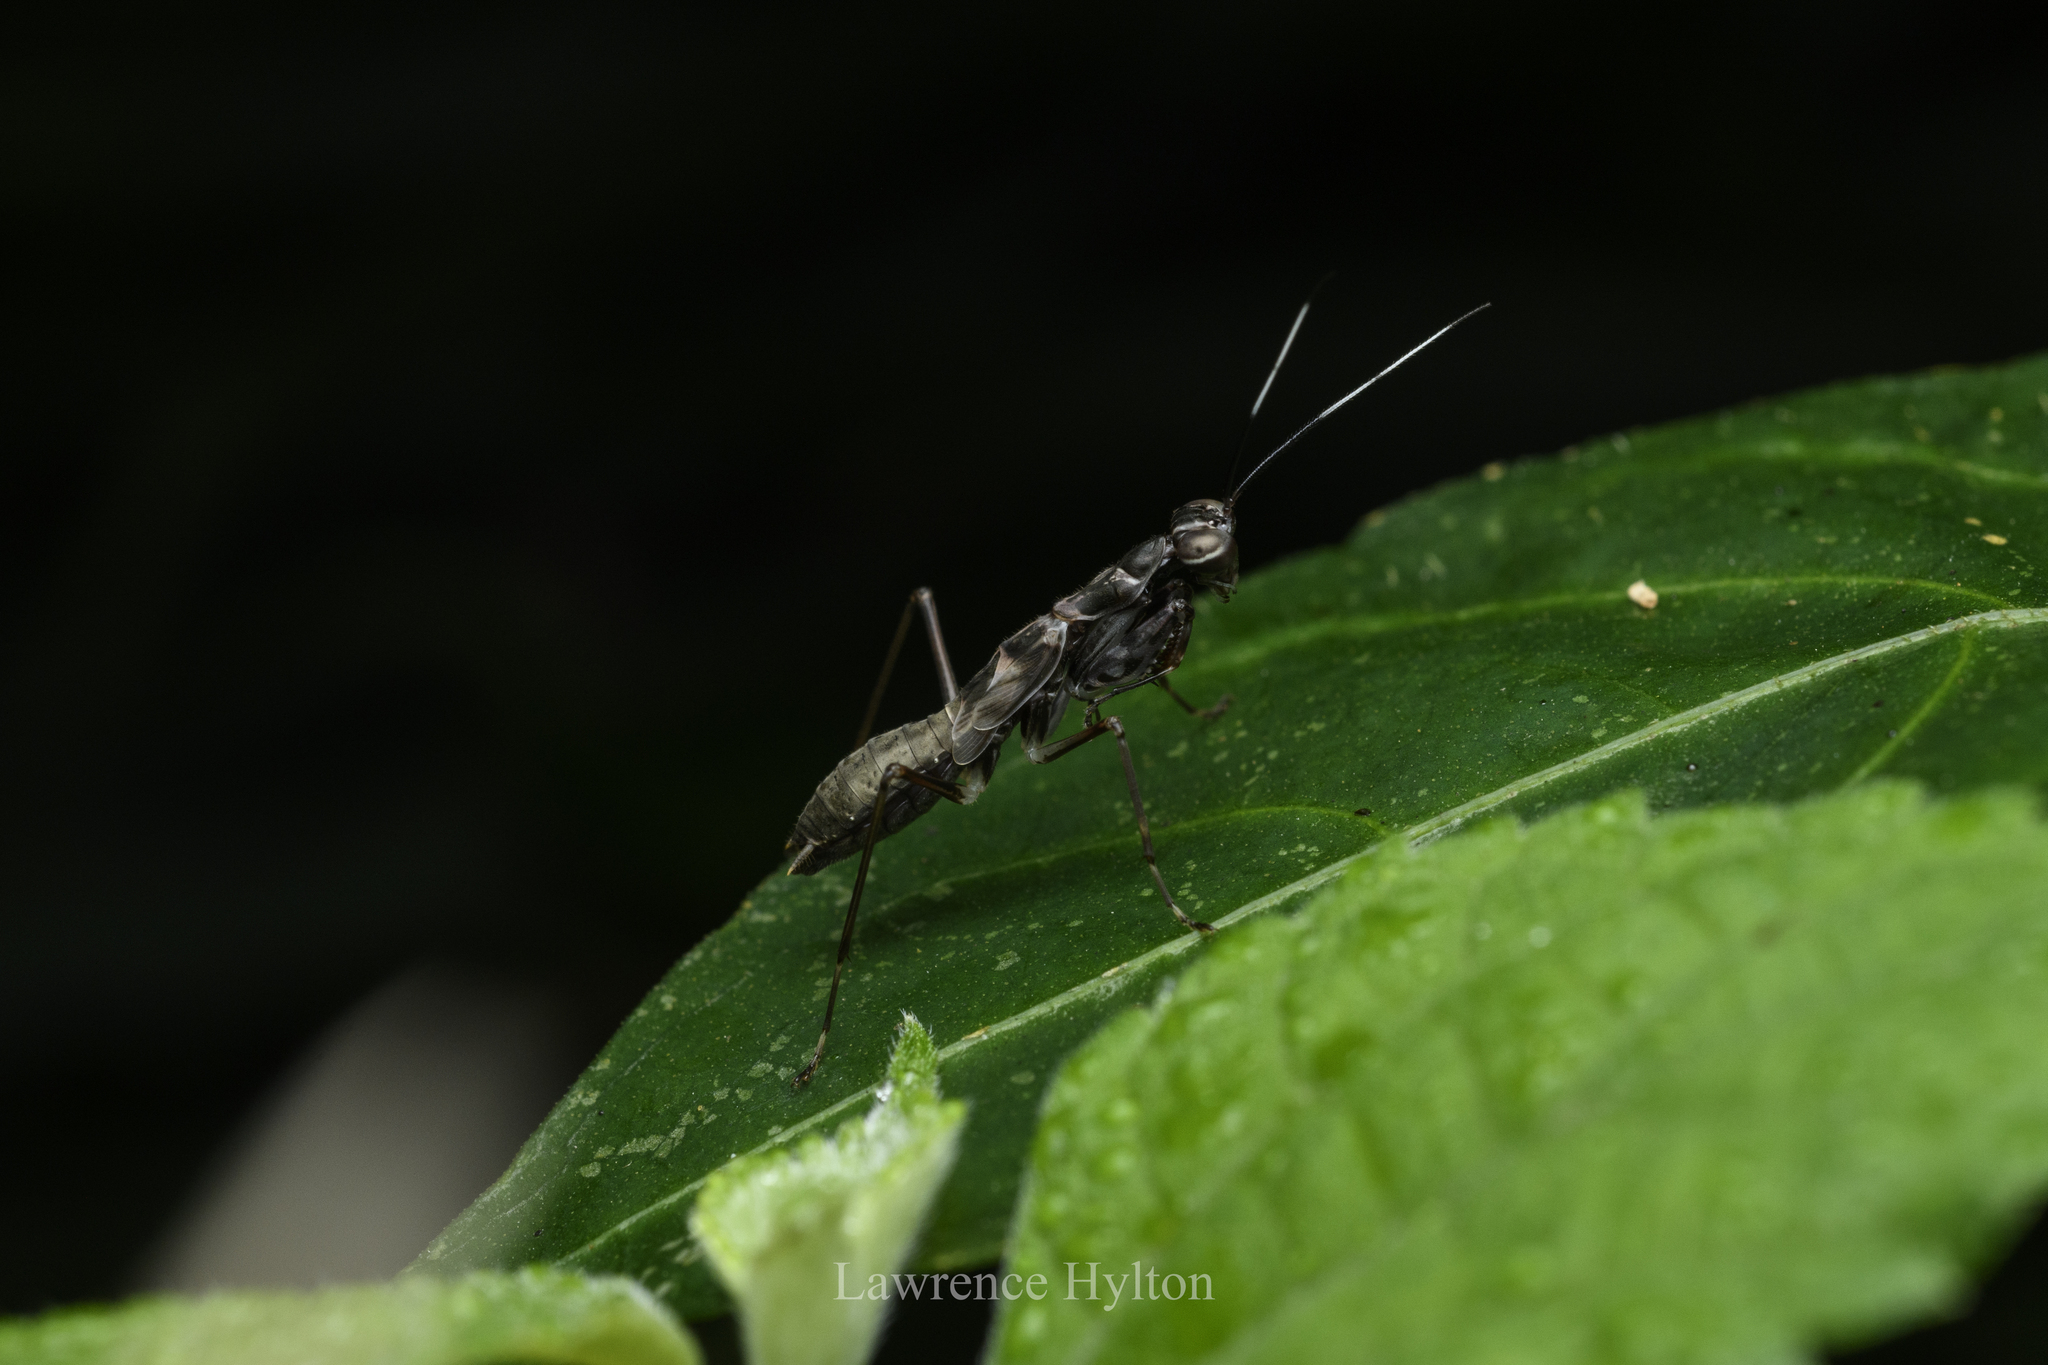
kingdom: Animalia
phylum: Arthropoda
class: Insecta
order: Mantodea
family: Gonypetidae
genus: Spilomantis
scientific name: Spilomantis occipitalis
